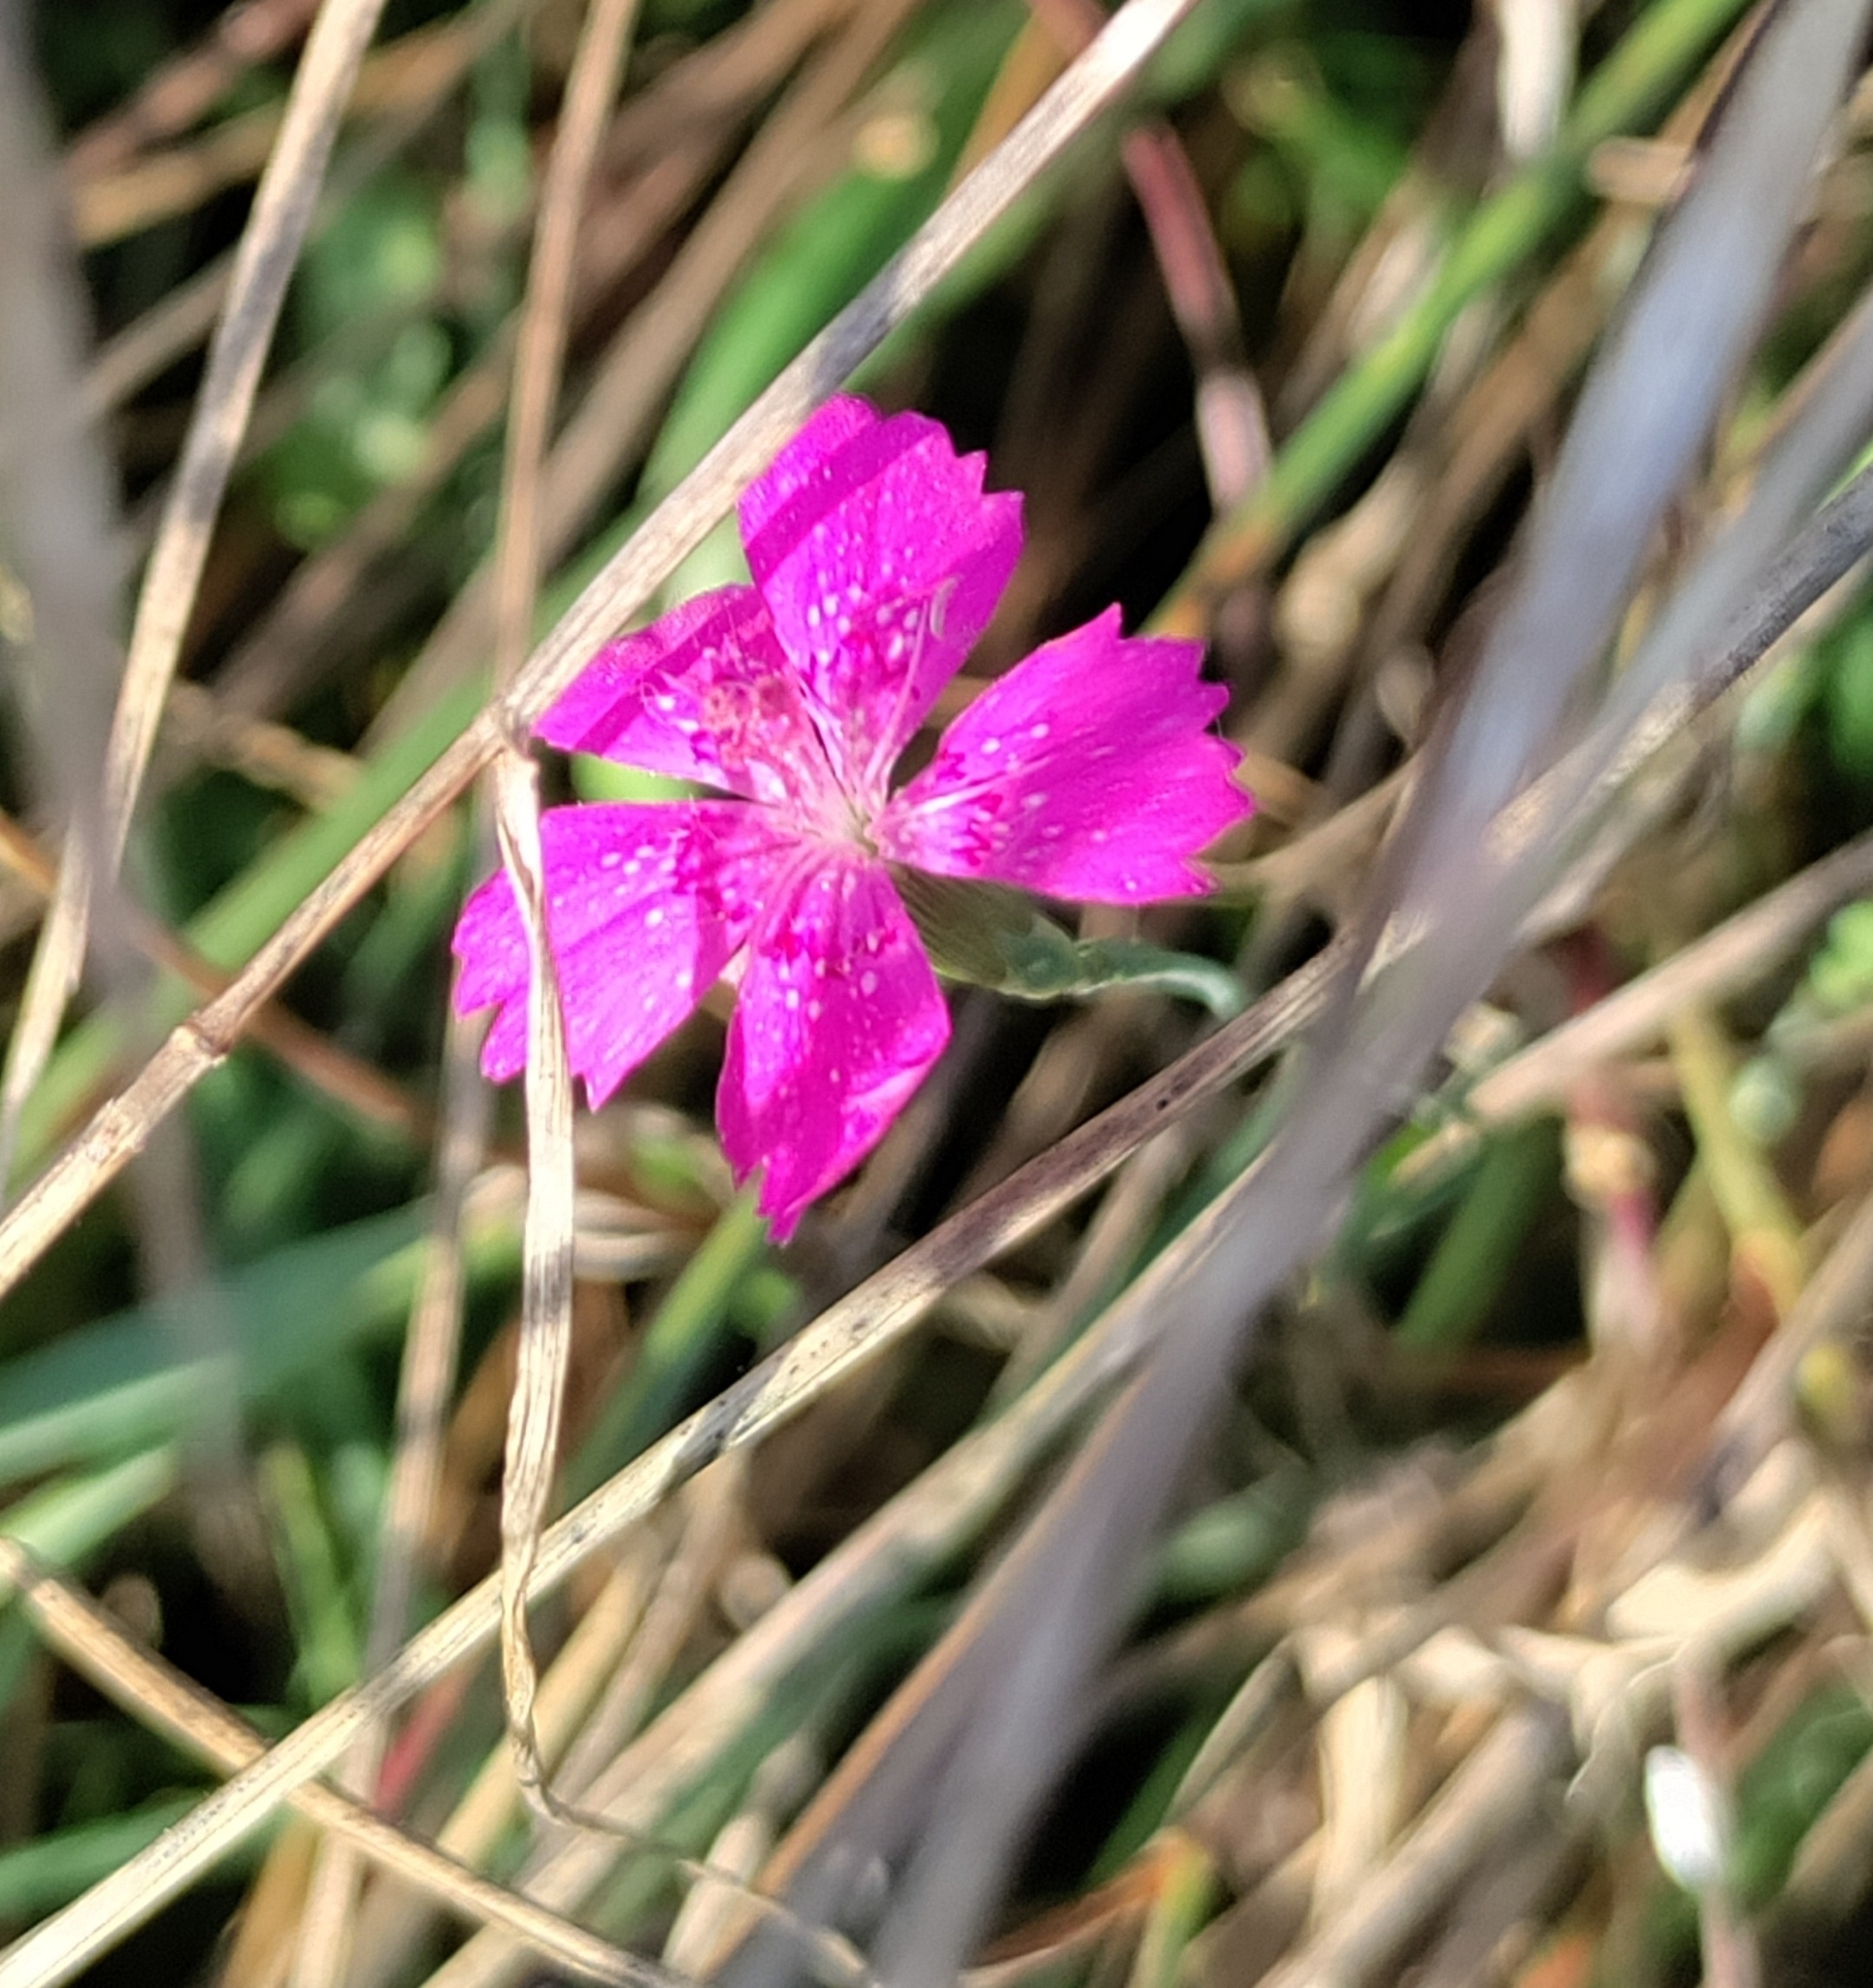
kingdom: Plantae
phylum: Tracheophyta
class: Magnoliopsida
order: Caryophyllales
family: Caryophyllaceae
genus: Dianthus
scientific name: Dianthus deltoides
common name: Maiden pink
